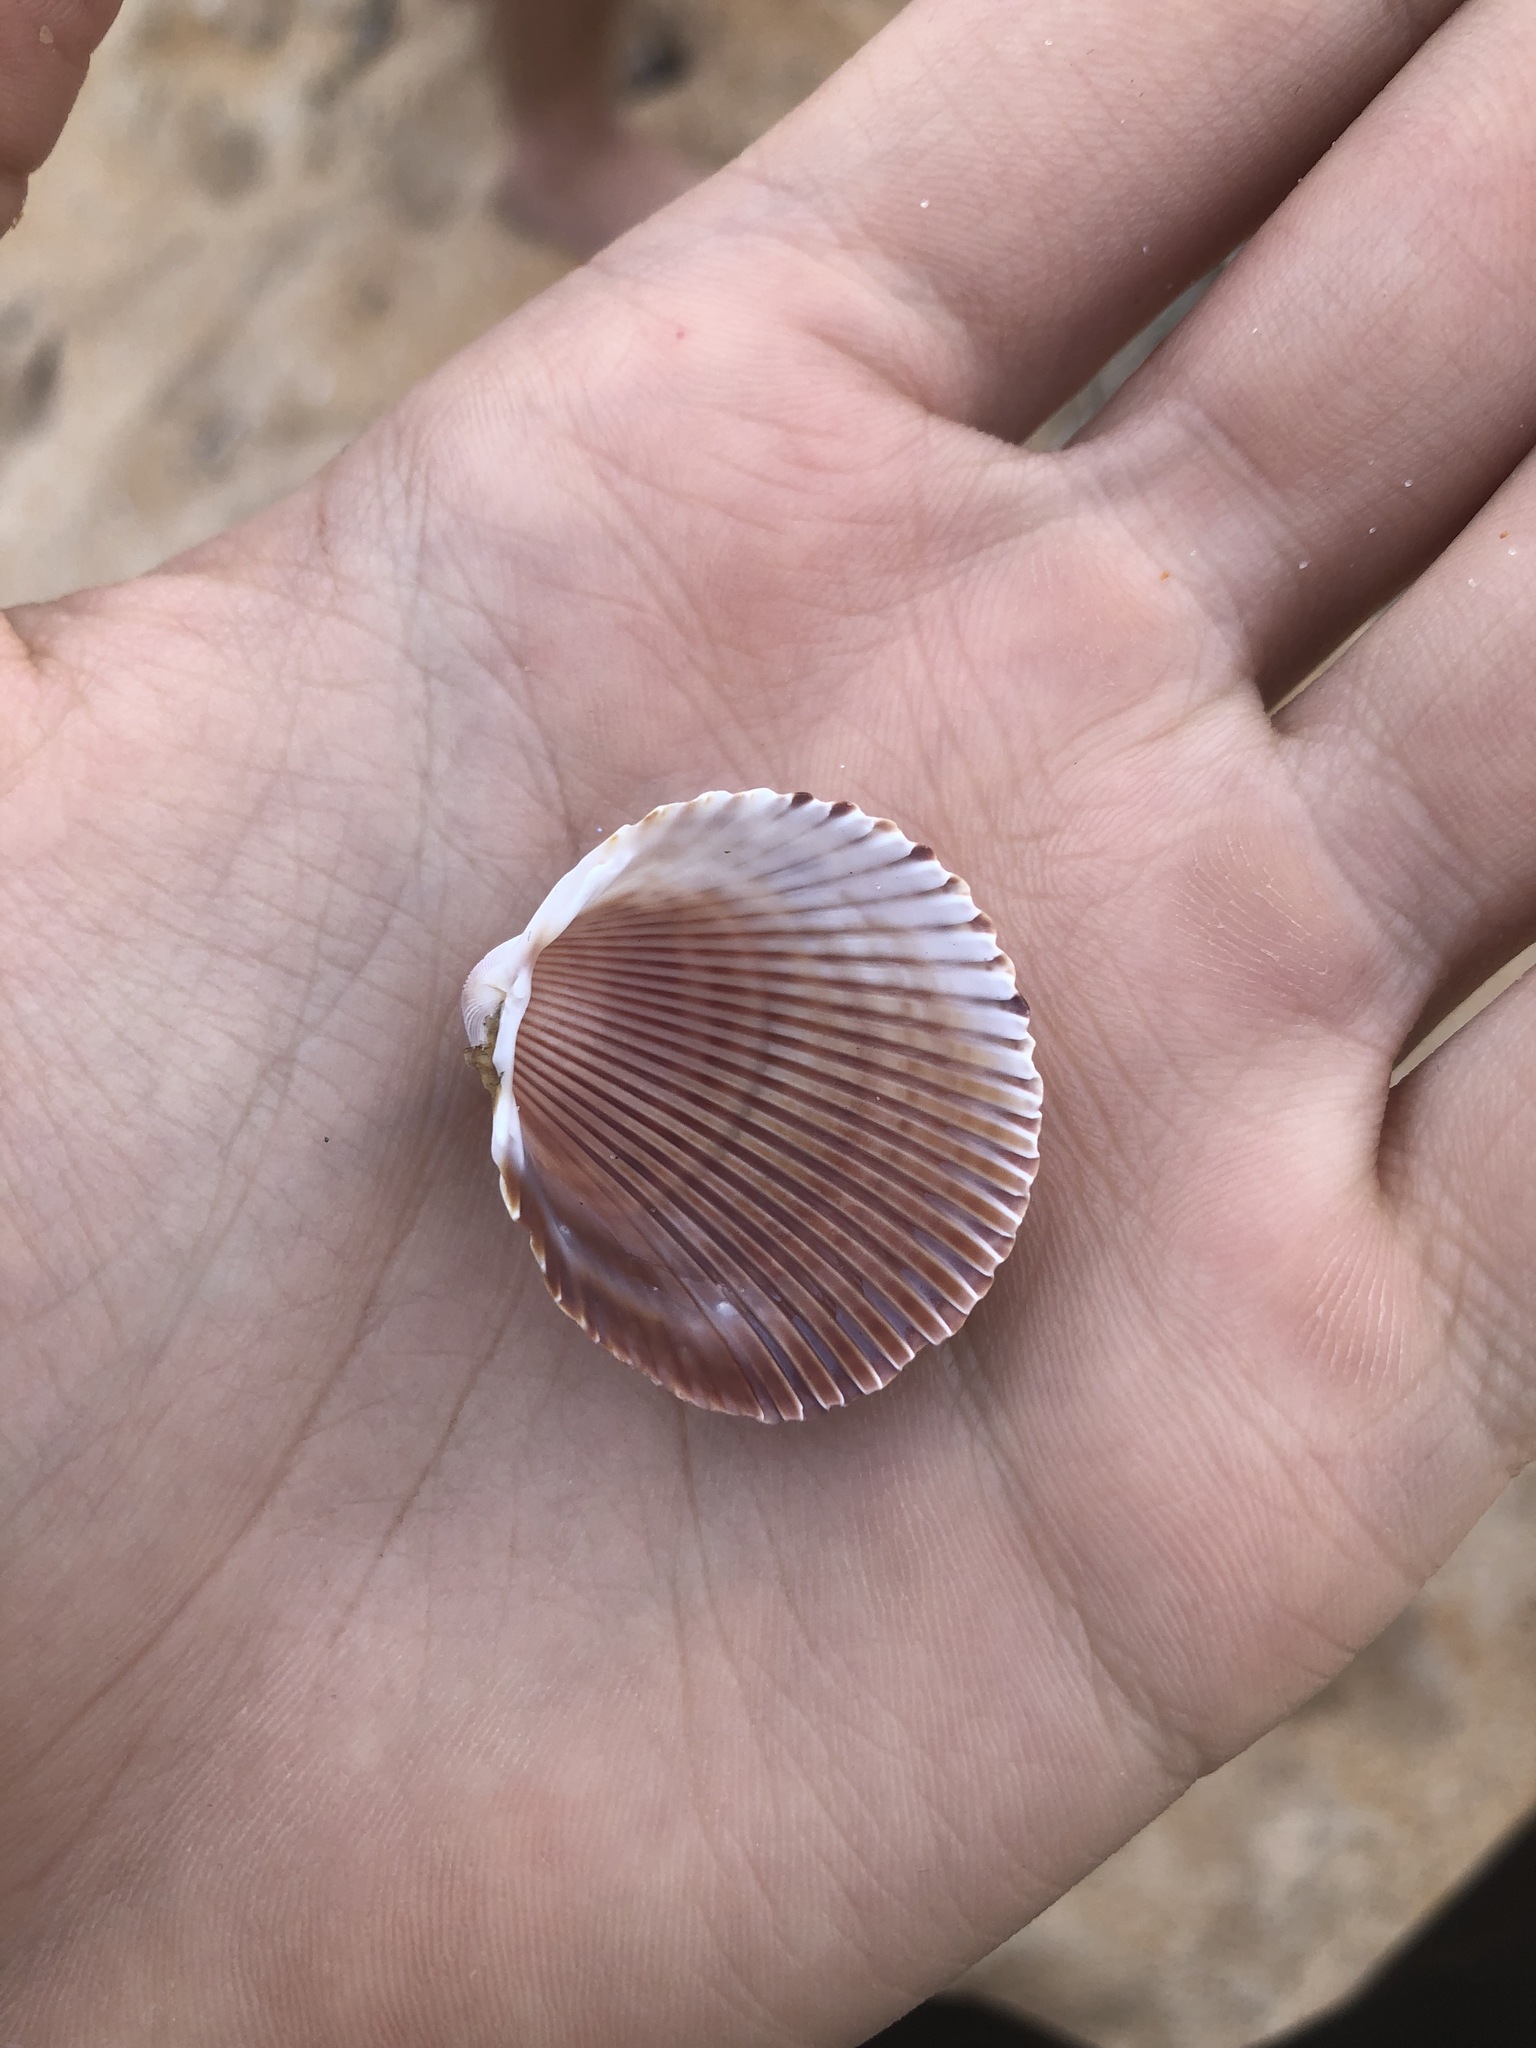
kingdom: Animalia
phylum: Mollusca
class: Bivalvia
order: Cardiida
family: Cardiidae
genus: Dinocardium
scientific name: Dinocardium robustum
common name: Atlantic giant cockle
